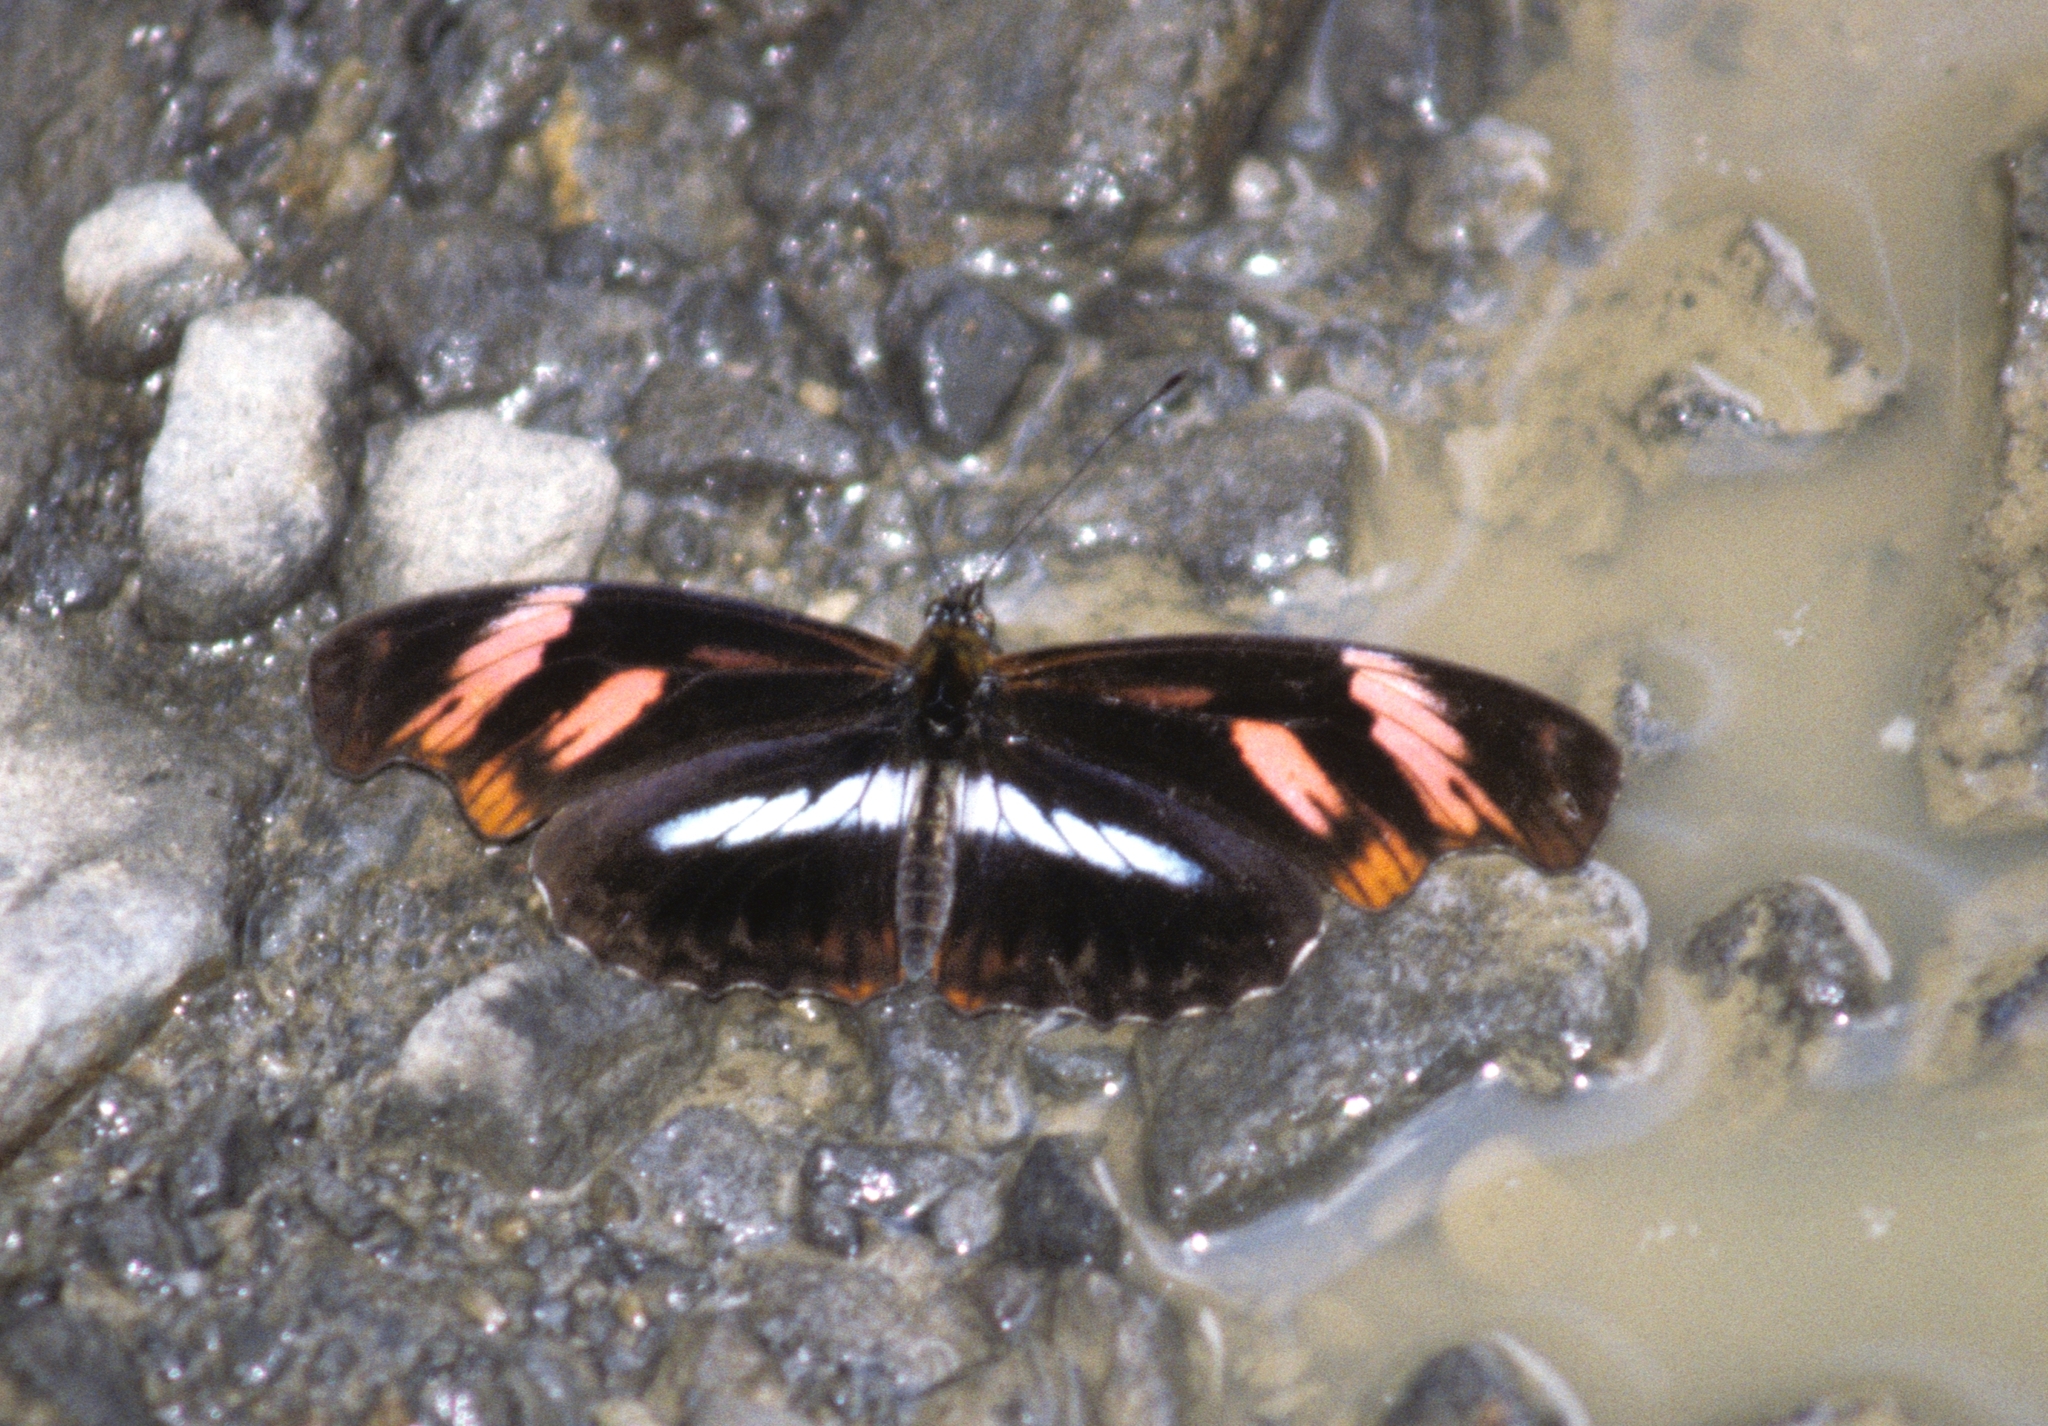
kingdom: Animalia
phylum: Arthropoda
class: Insecta
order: Lepidoptera
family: Nymphalidae
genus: Podotricha
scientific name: Podotricha telesiphe
